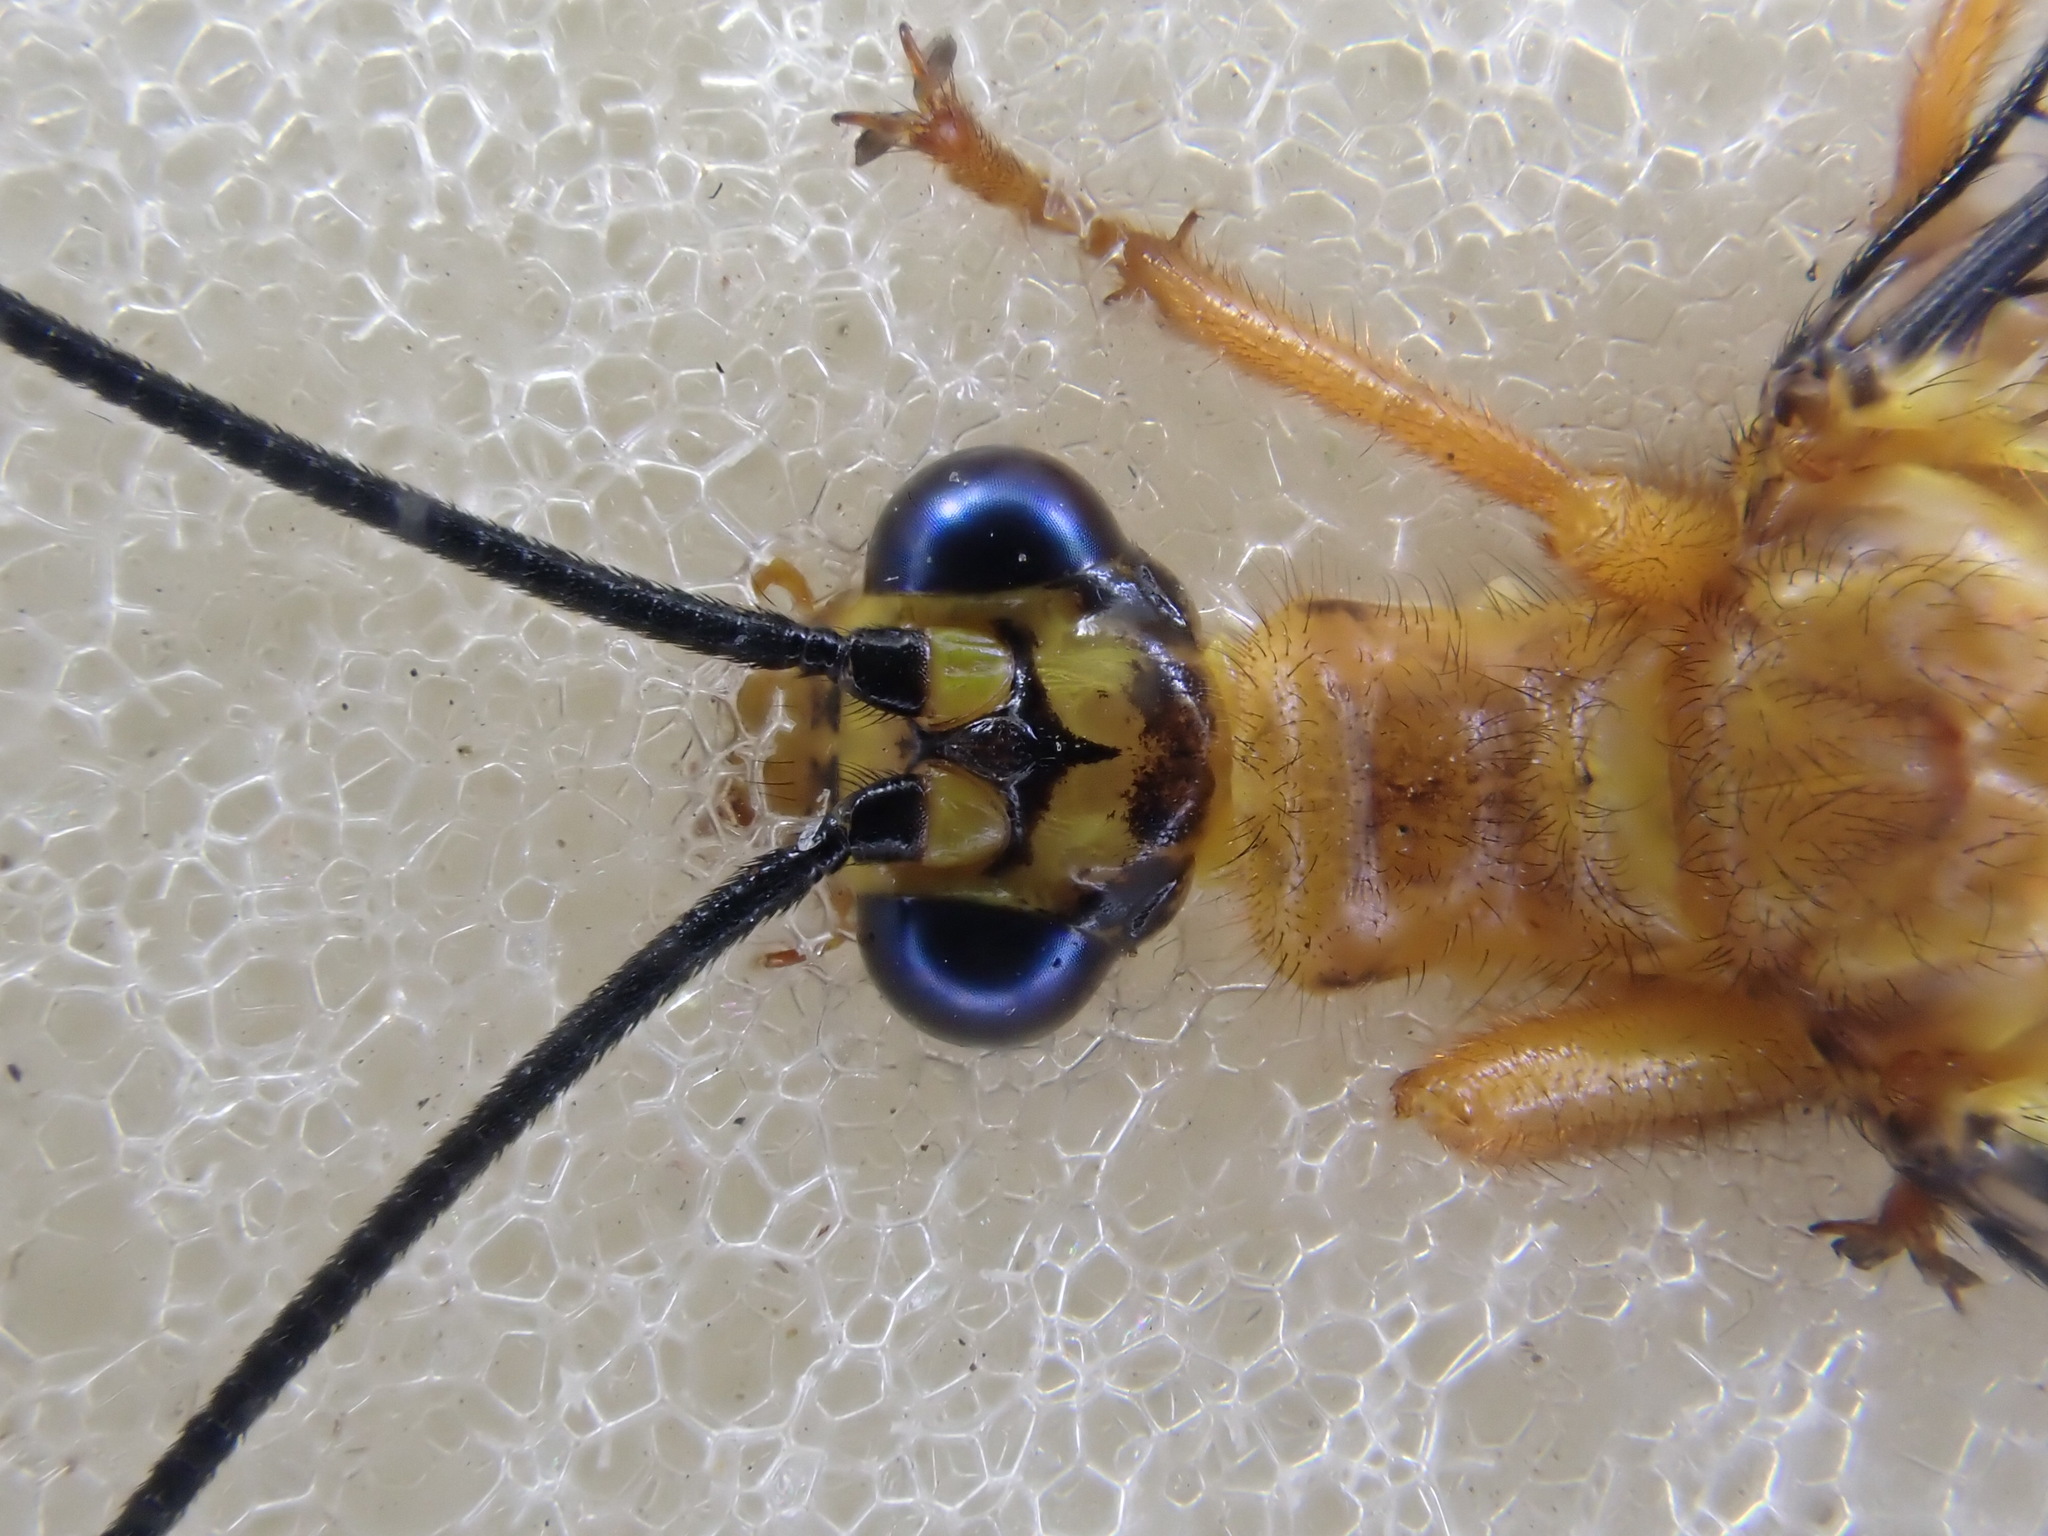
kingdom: Animalia
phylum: Arthropoda
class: Insecta
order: Neuroptera
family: Nymphidae
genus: Nymphes
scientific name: Nymphes myrmeleonoides
